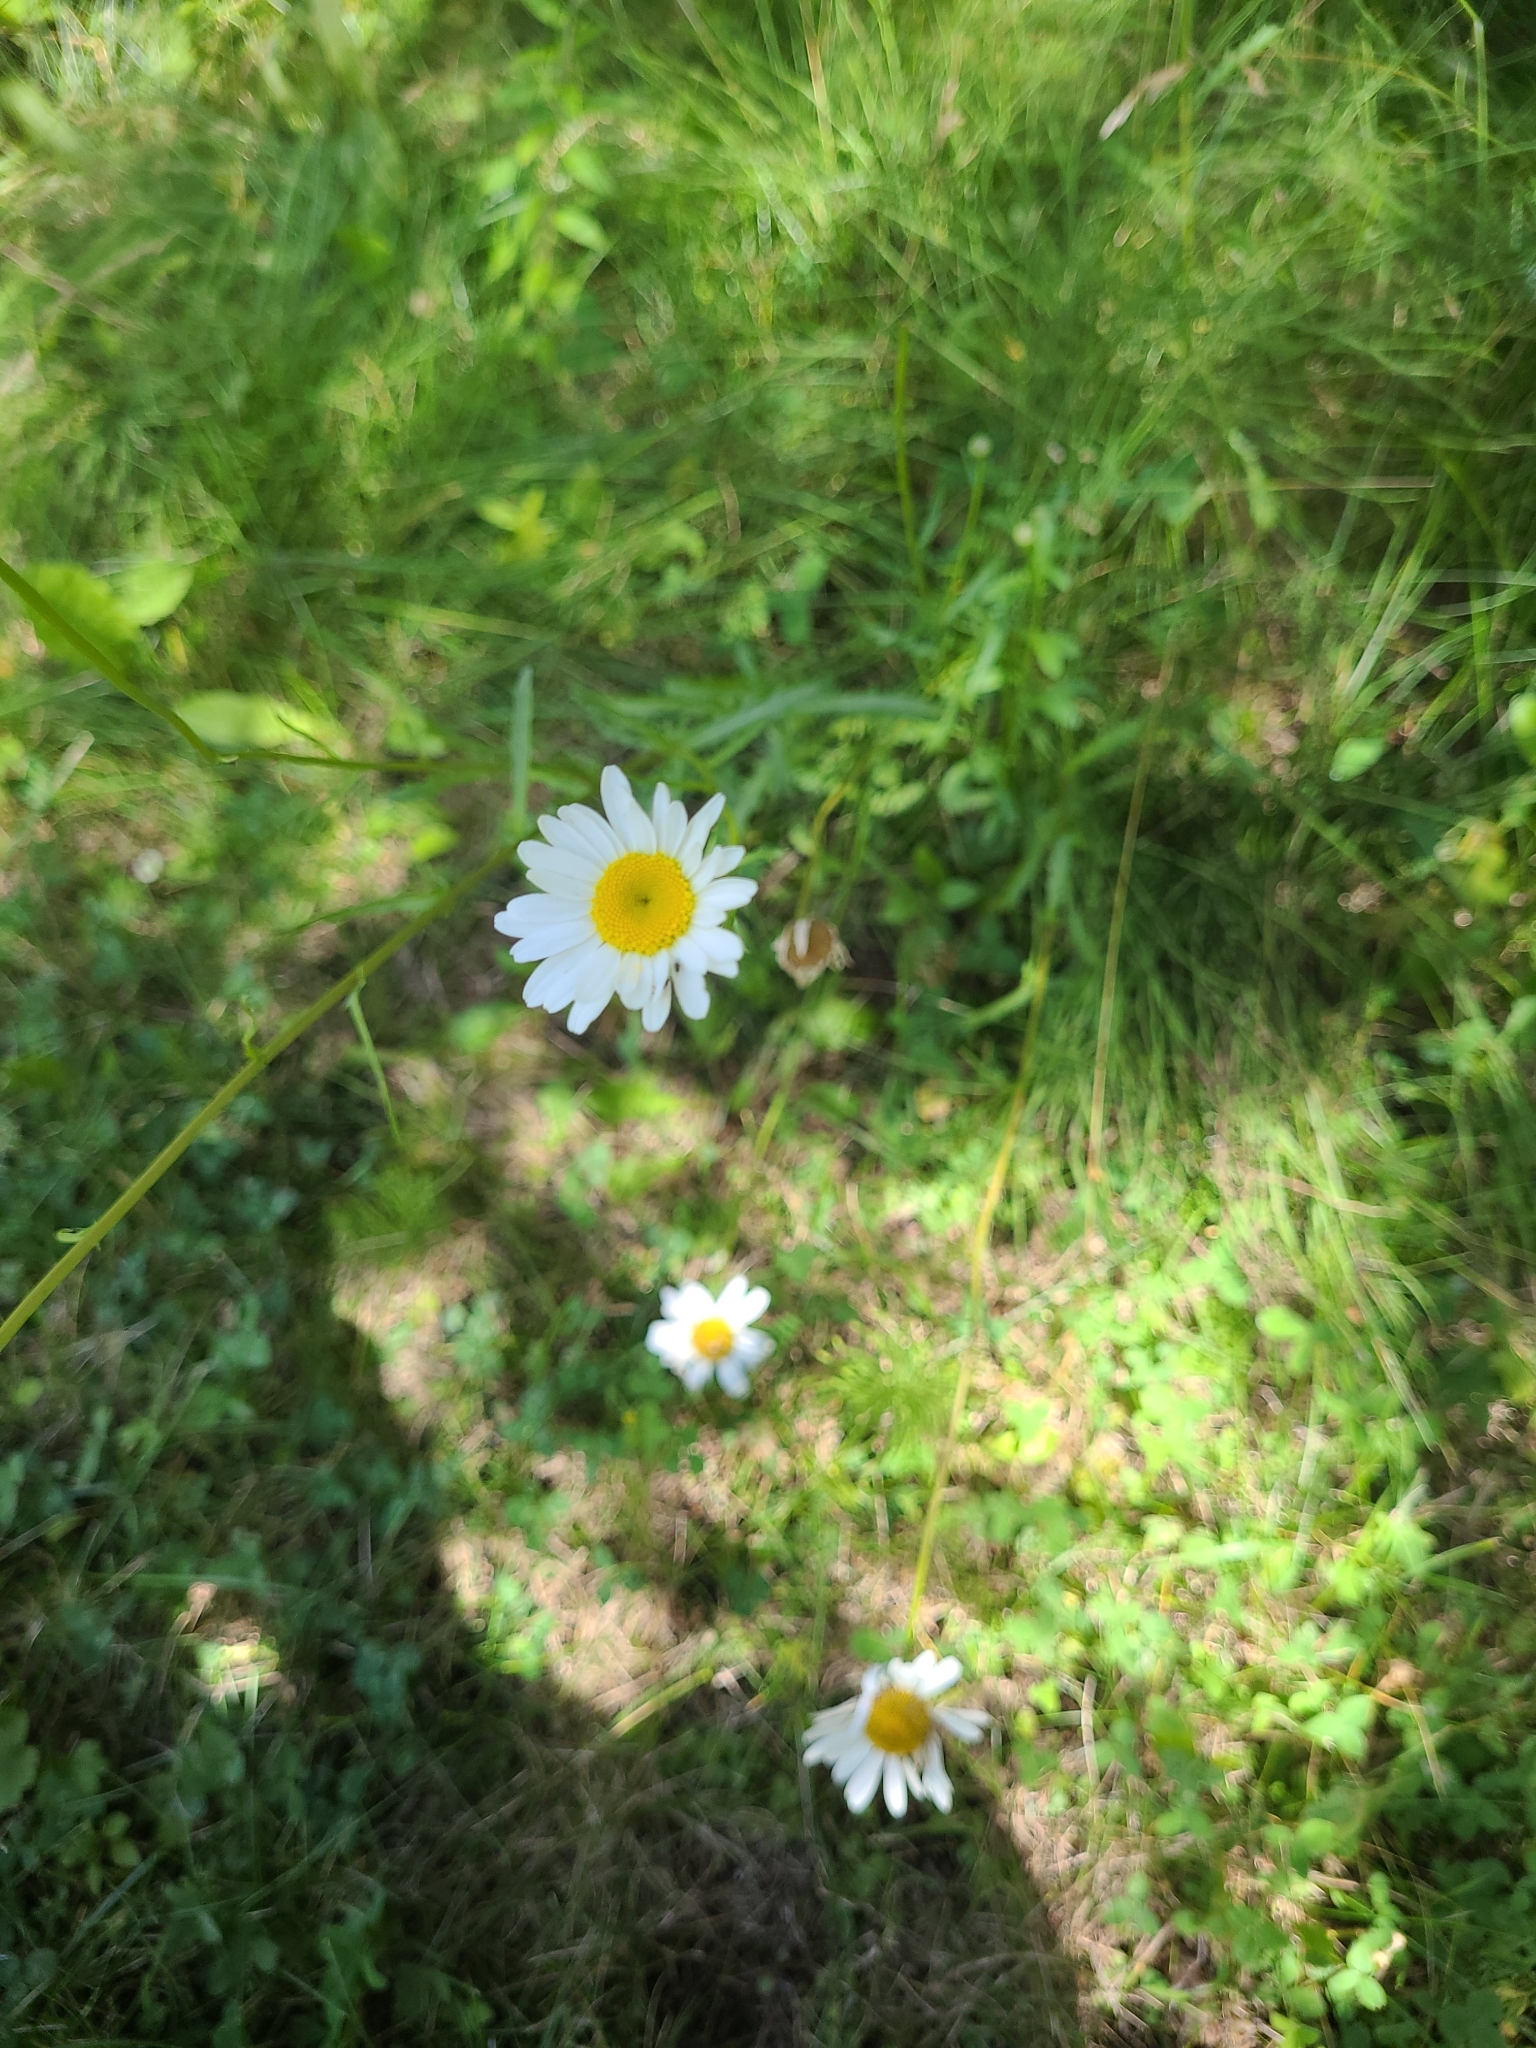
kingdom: Plantae
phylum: Tracheophyta
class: Magnoliopsida
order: Asterales
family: Asteraceae
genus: Leucanthemum
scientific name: Leucanthemum vulgare
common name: Oxeye daisy
